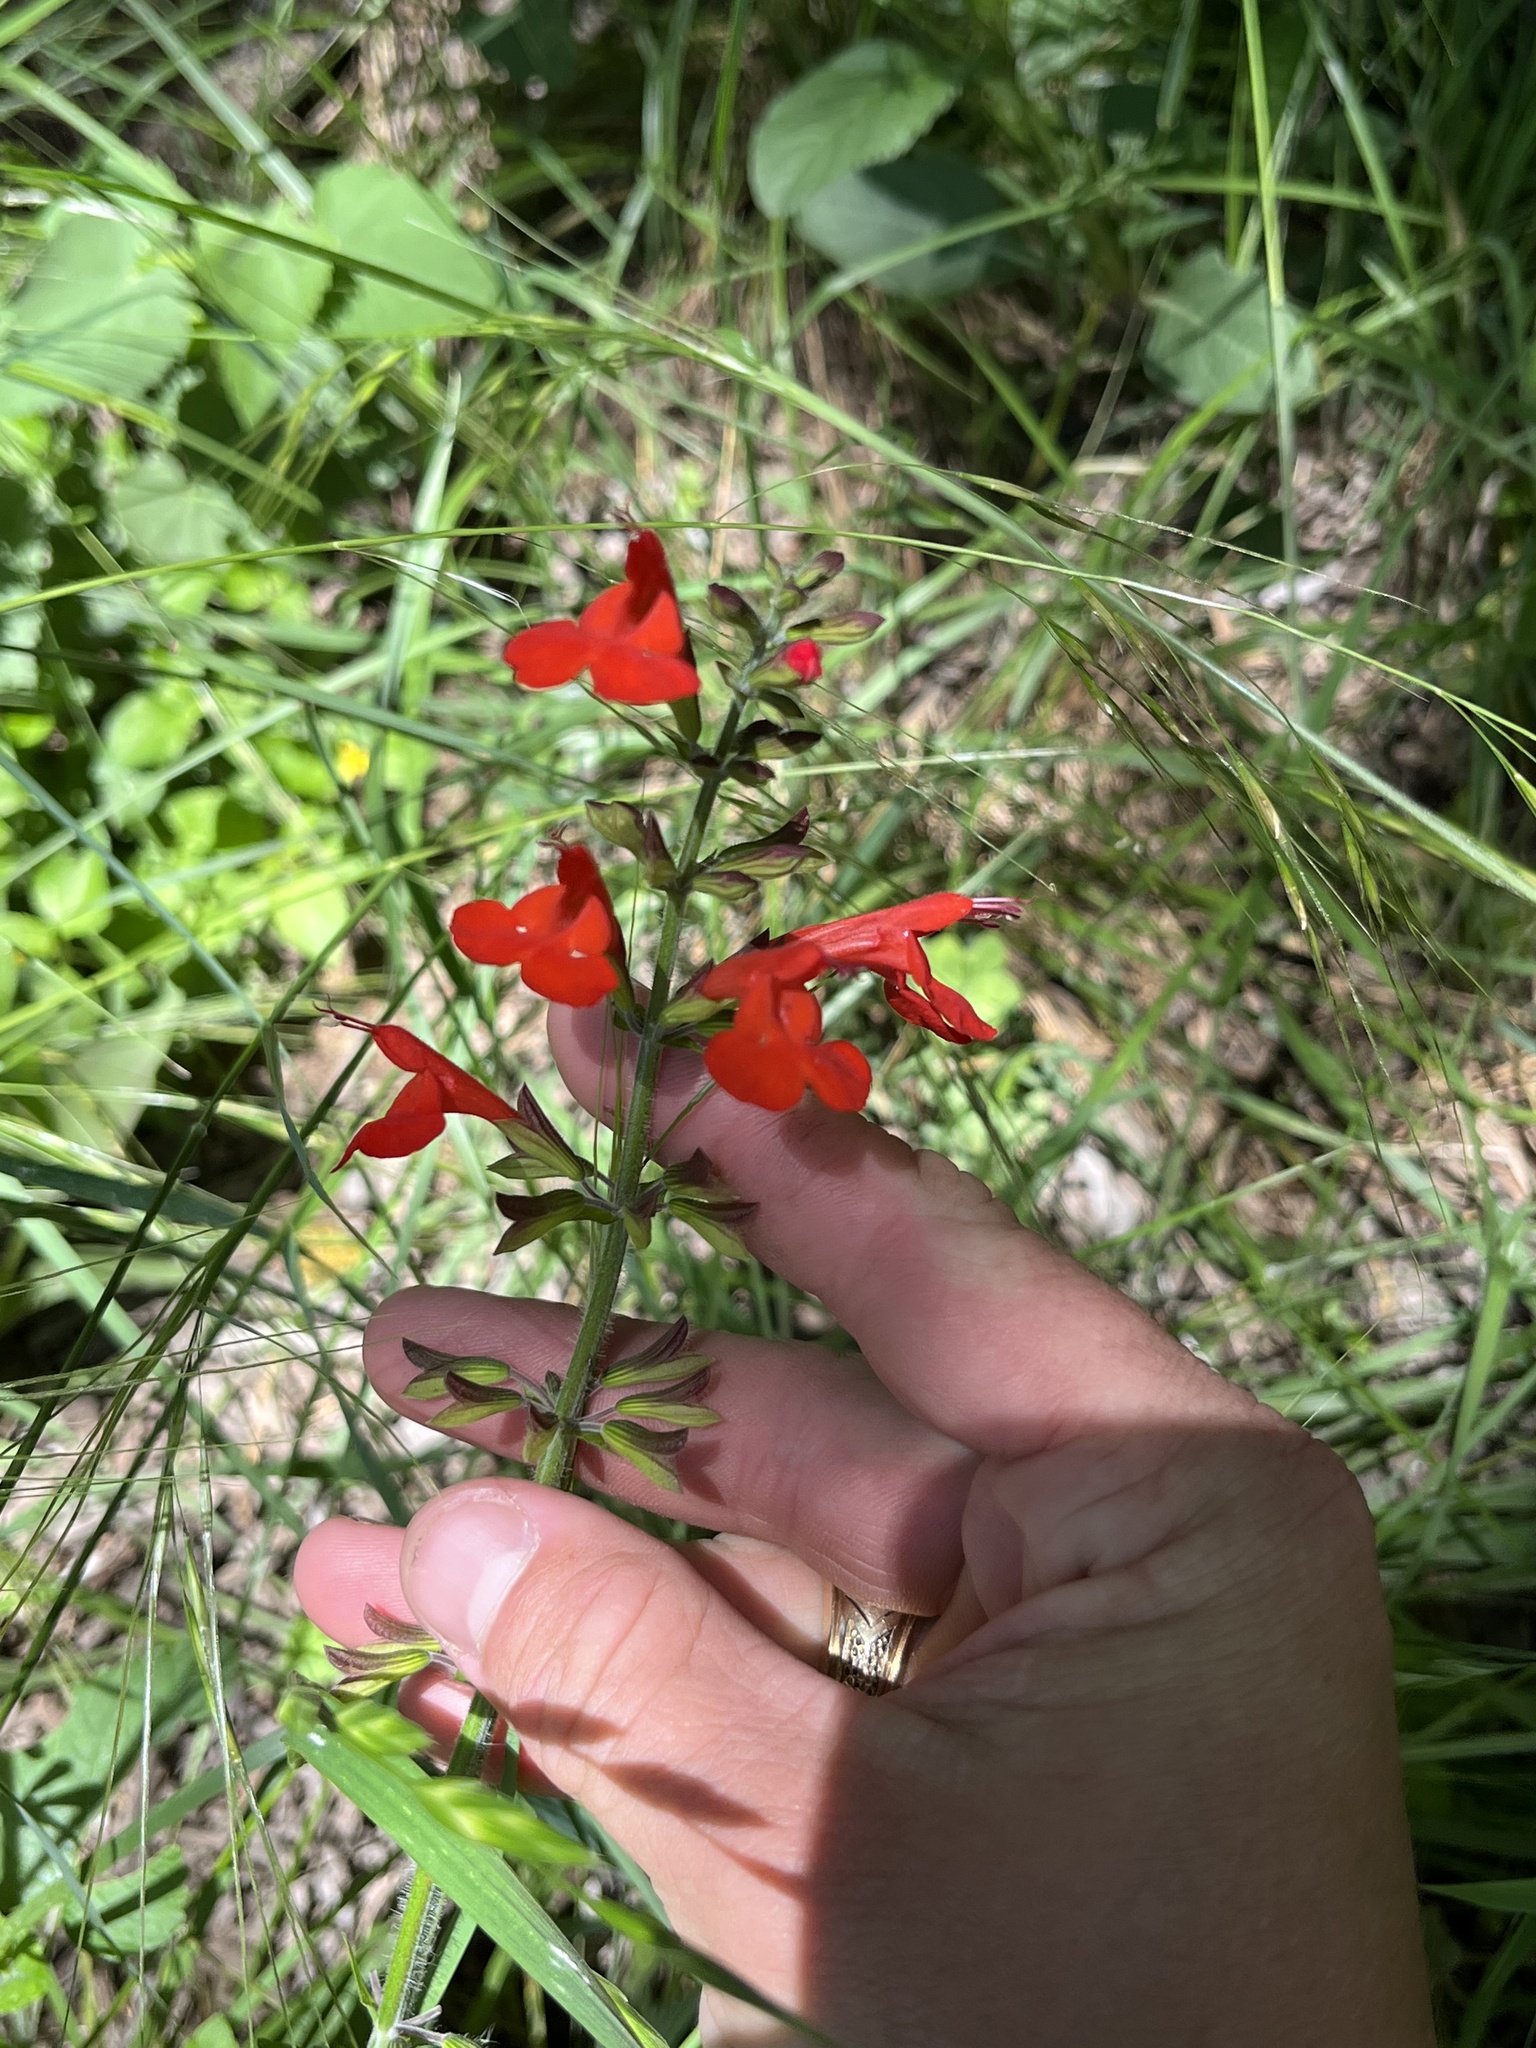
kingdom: Plantae
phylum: Tracheophyta
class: Magnoliopsida
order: Lamiales
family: Lamiaceae
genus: Salvia
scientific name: Salvia coccinea
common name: Blood sage
